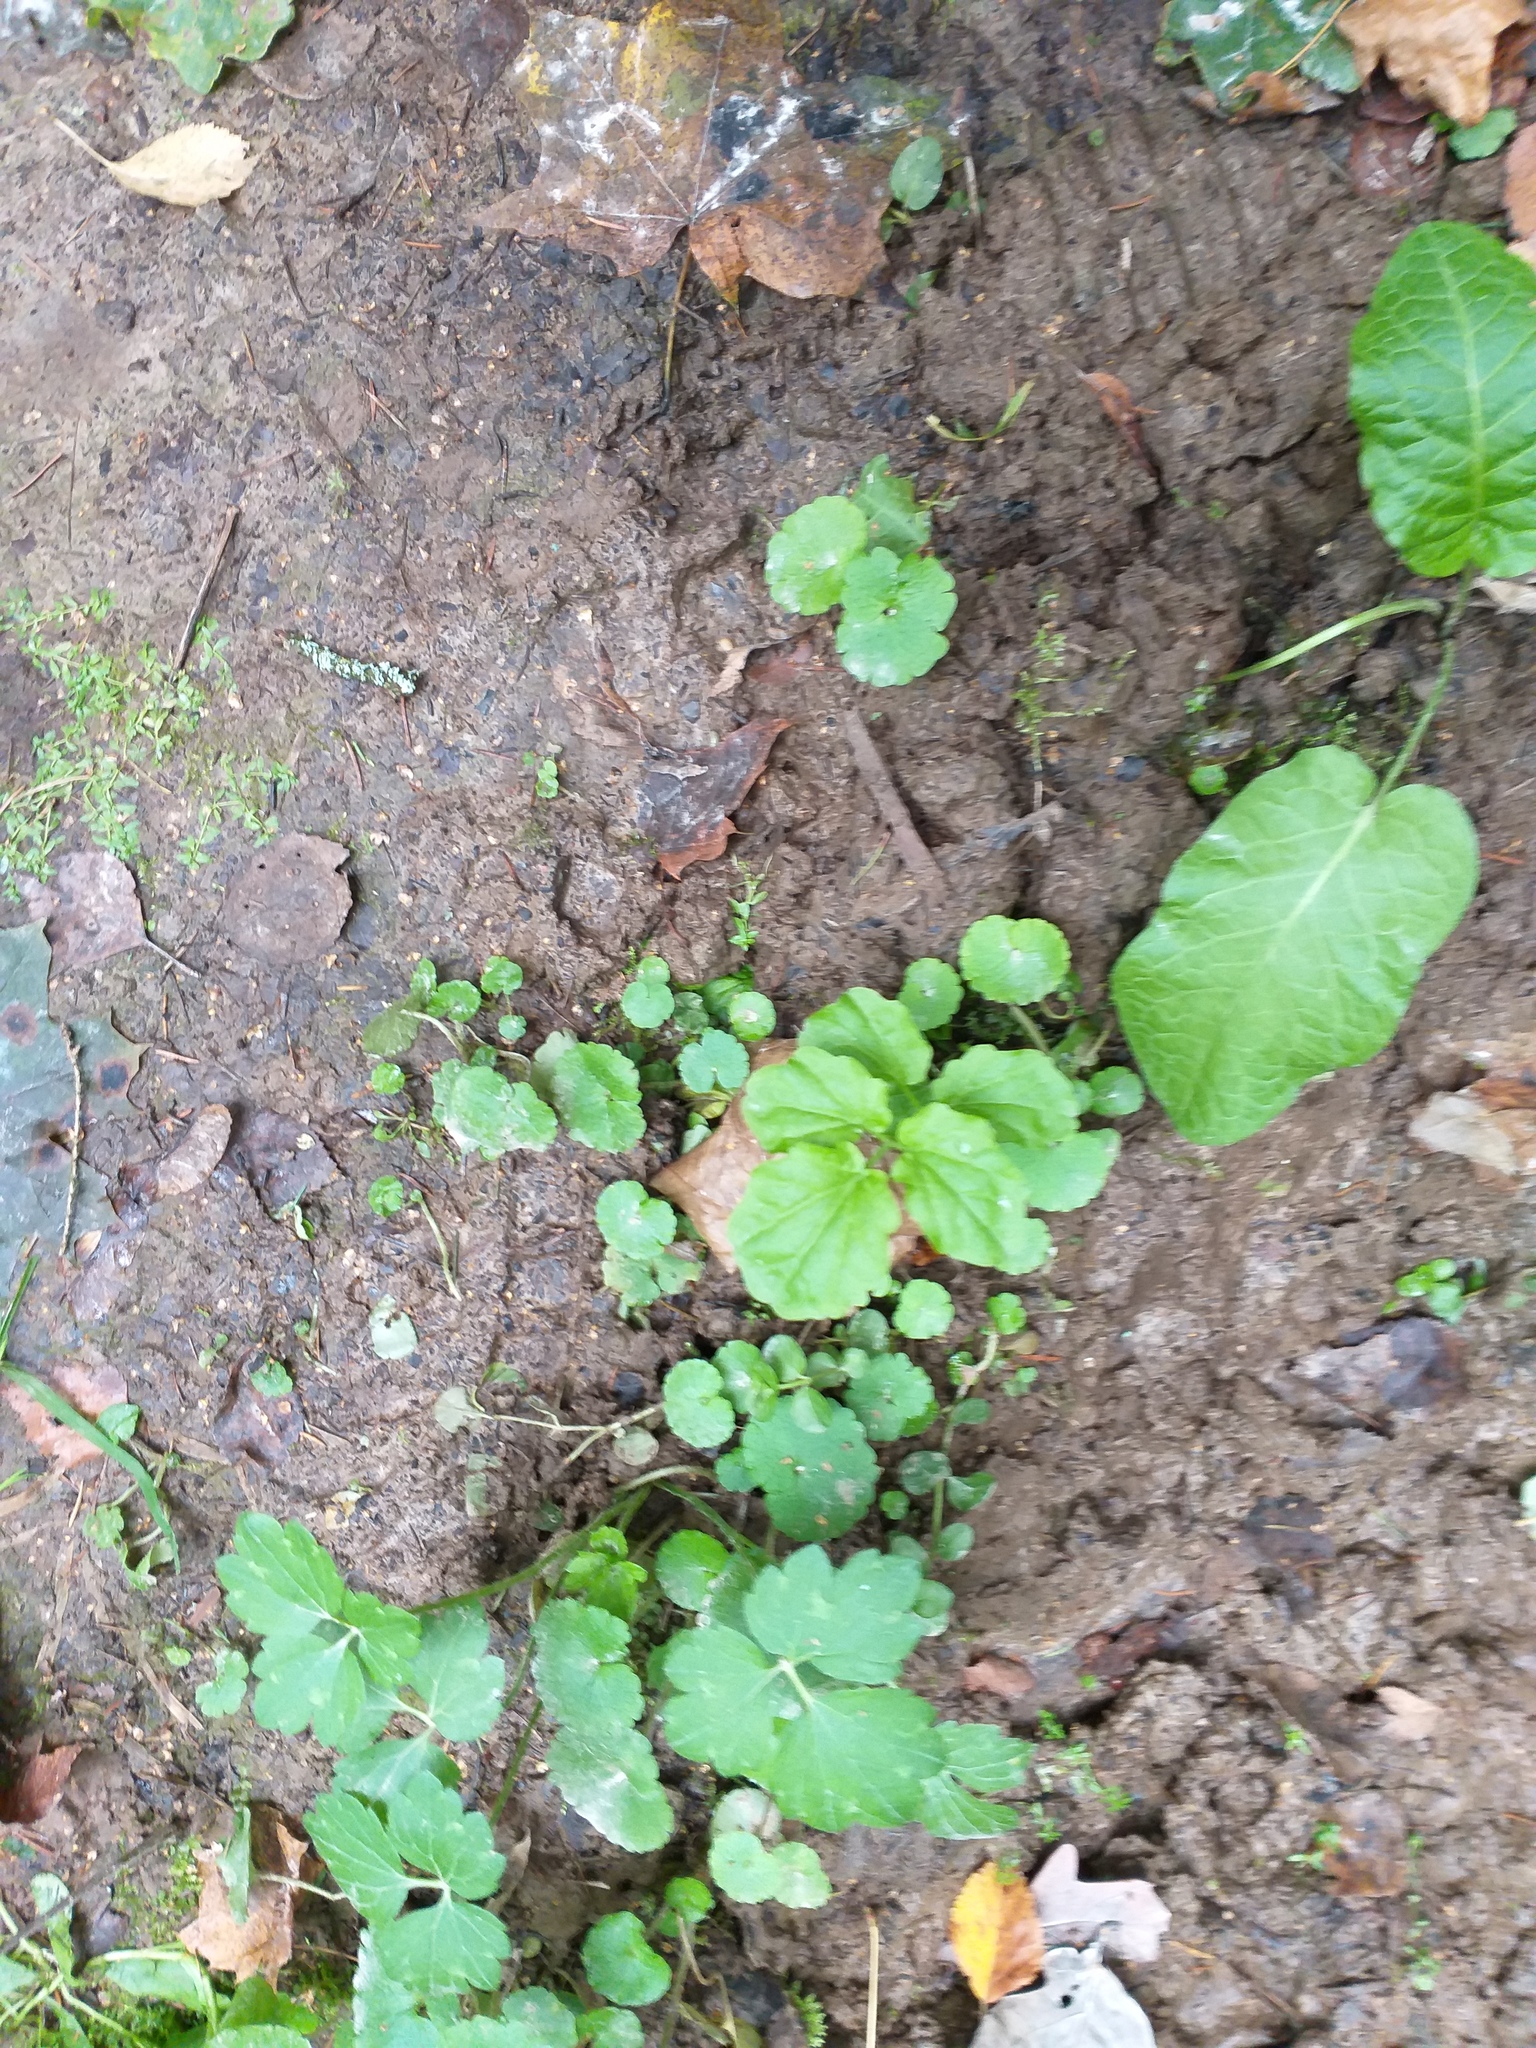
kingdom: Plantae
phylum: Tracheophyta
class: Magnoliopsida
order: Brassicales
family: Brassicaceae
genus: Cardamine
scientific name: Cardamine amara
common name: Large bitter-cress
